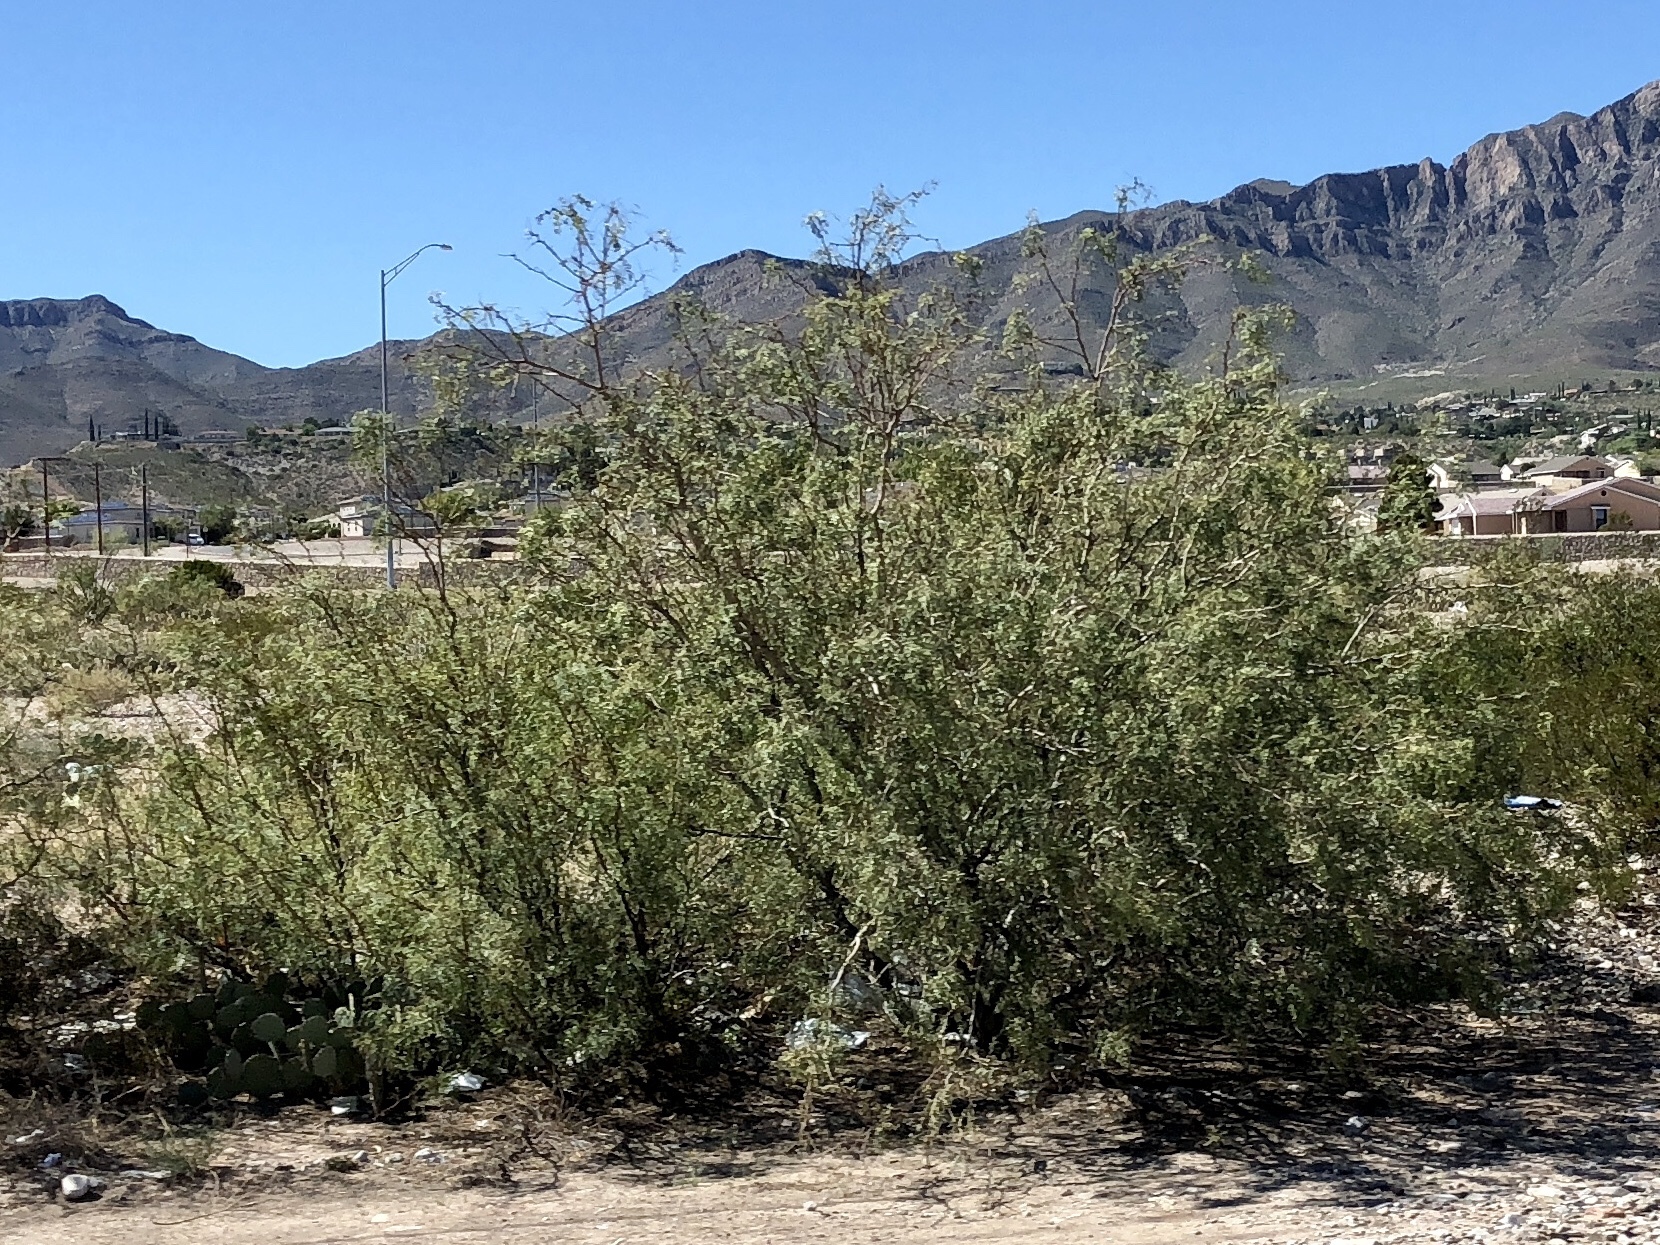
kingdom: Plantae
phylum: Tracheophyta
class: Magnoliopsida
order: Fabales
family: Fabaceae
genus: Prosopis
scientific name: Prosopis glandulosa
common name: Honey mesquite
